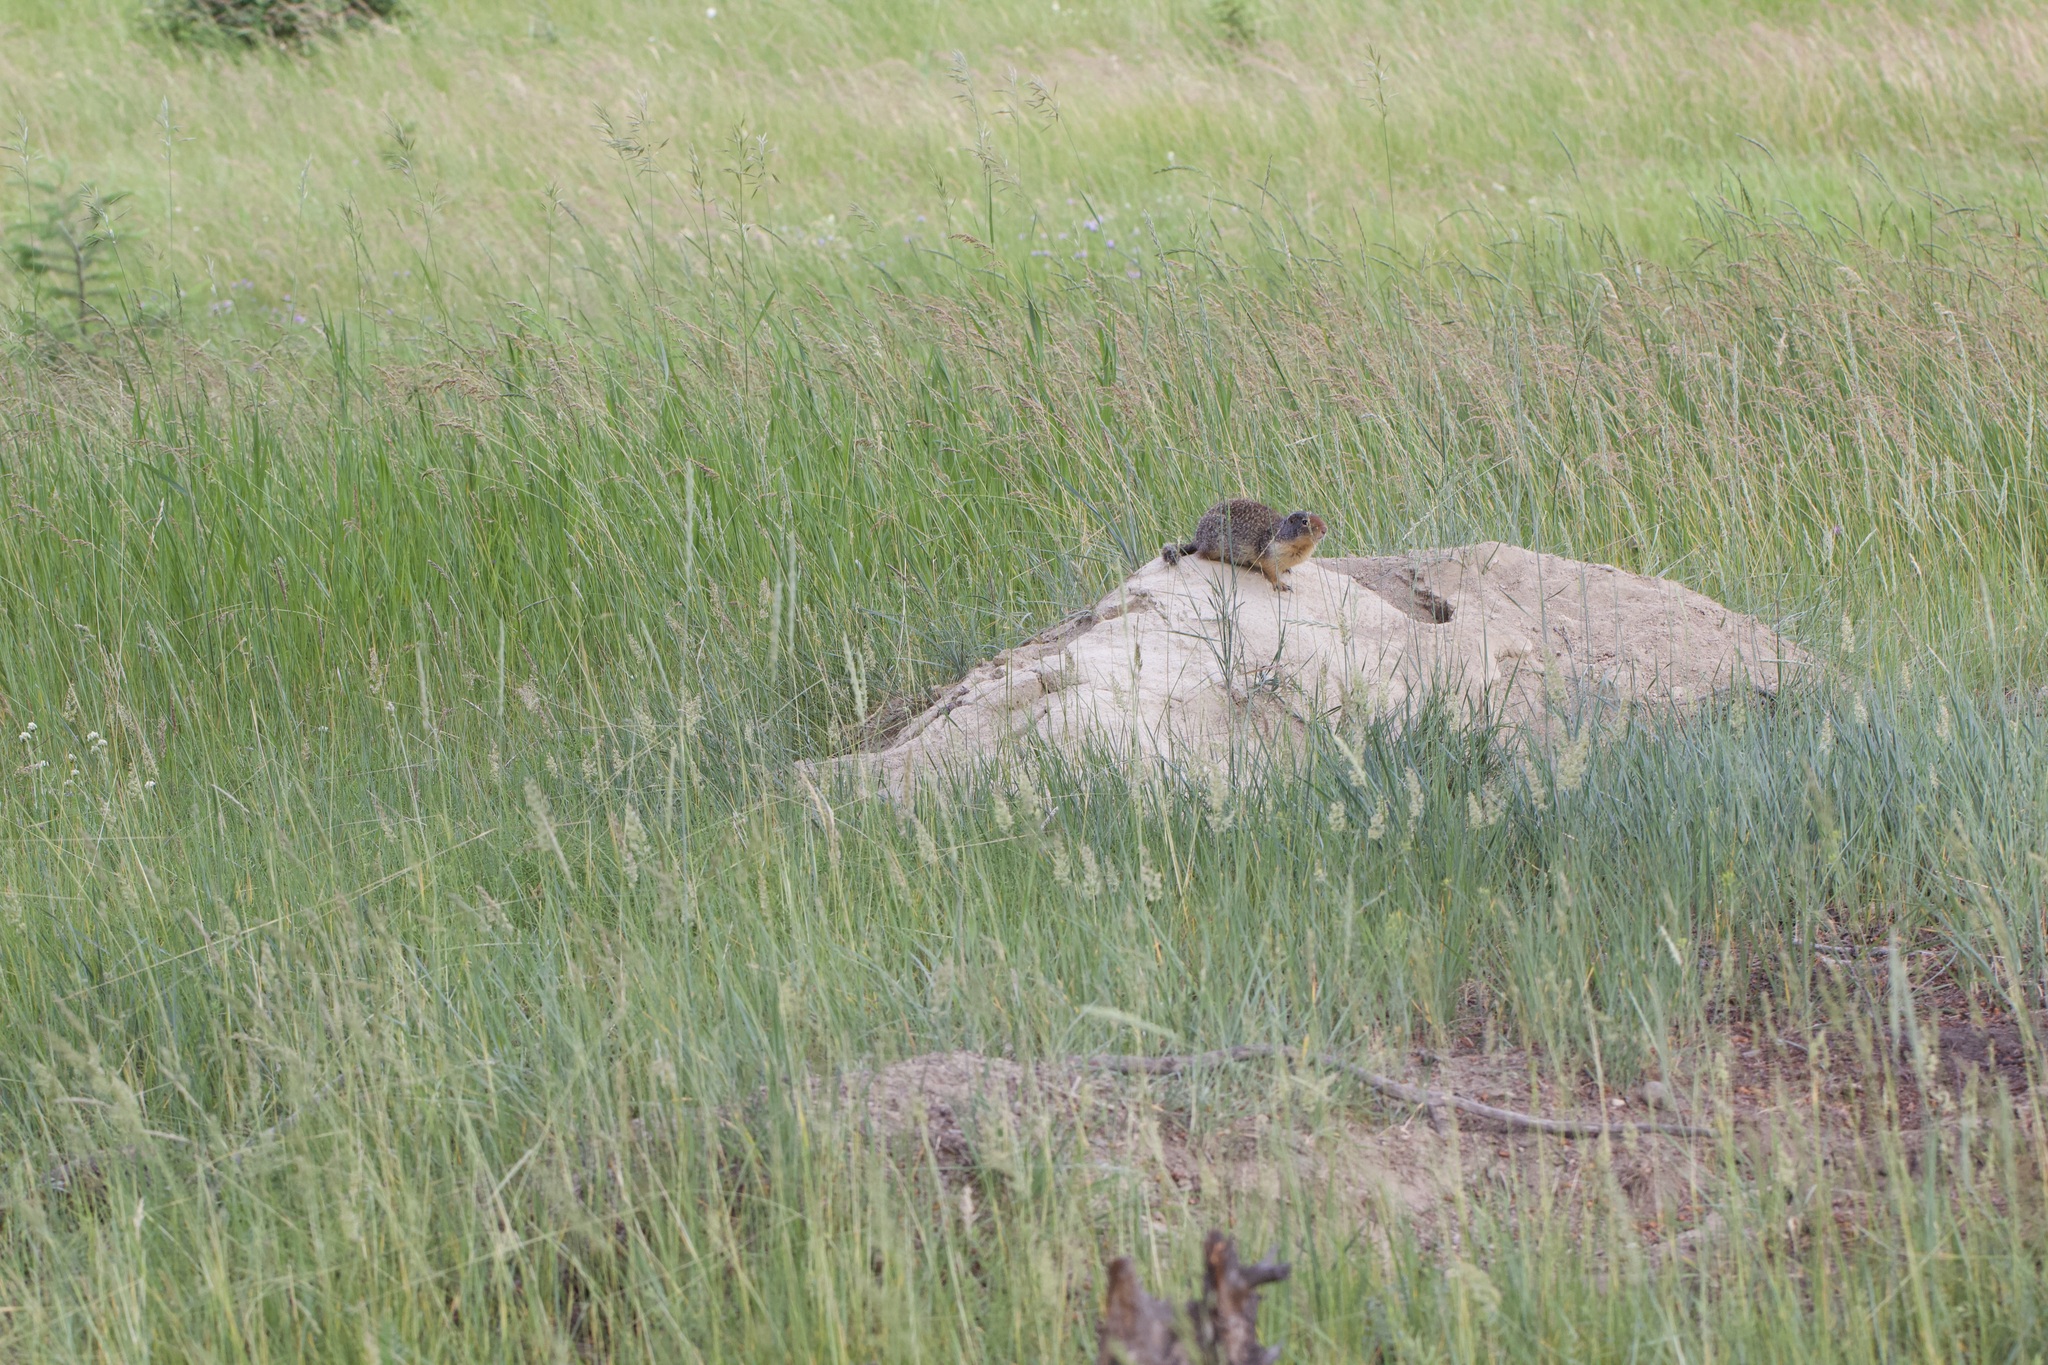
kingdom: Animalia
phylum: Chordata
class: Mammalia
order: Rodentia
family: Sciuridae
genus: Urocitellus
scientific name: Urocitellus columbianus
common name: Columbian ground squirrel
